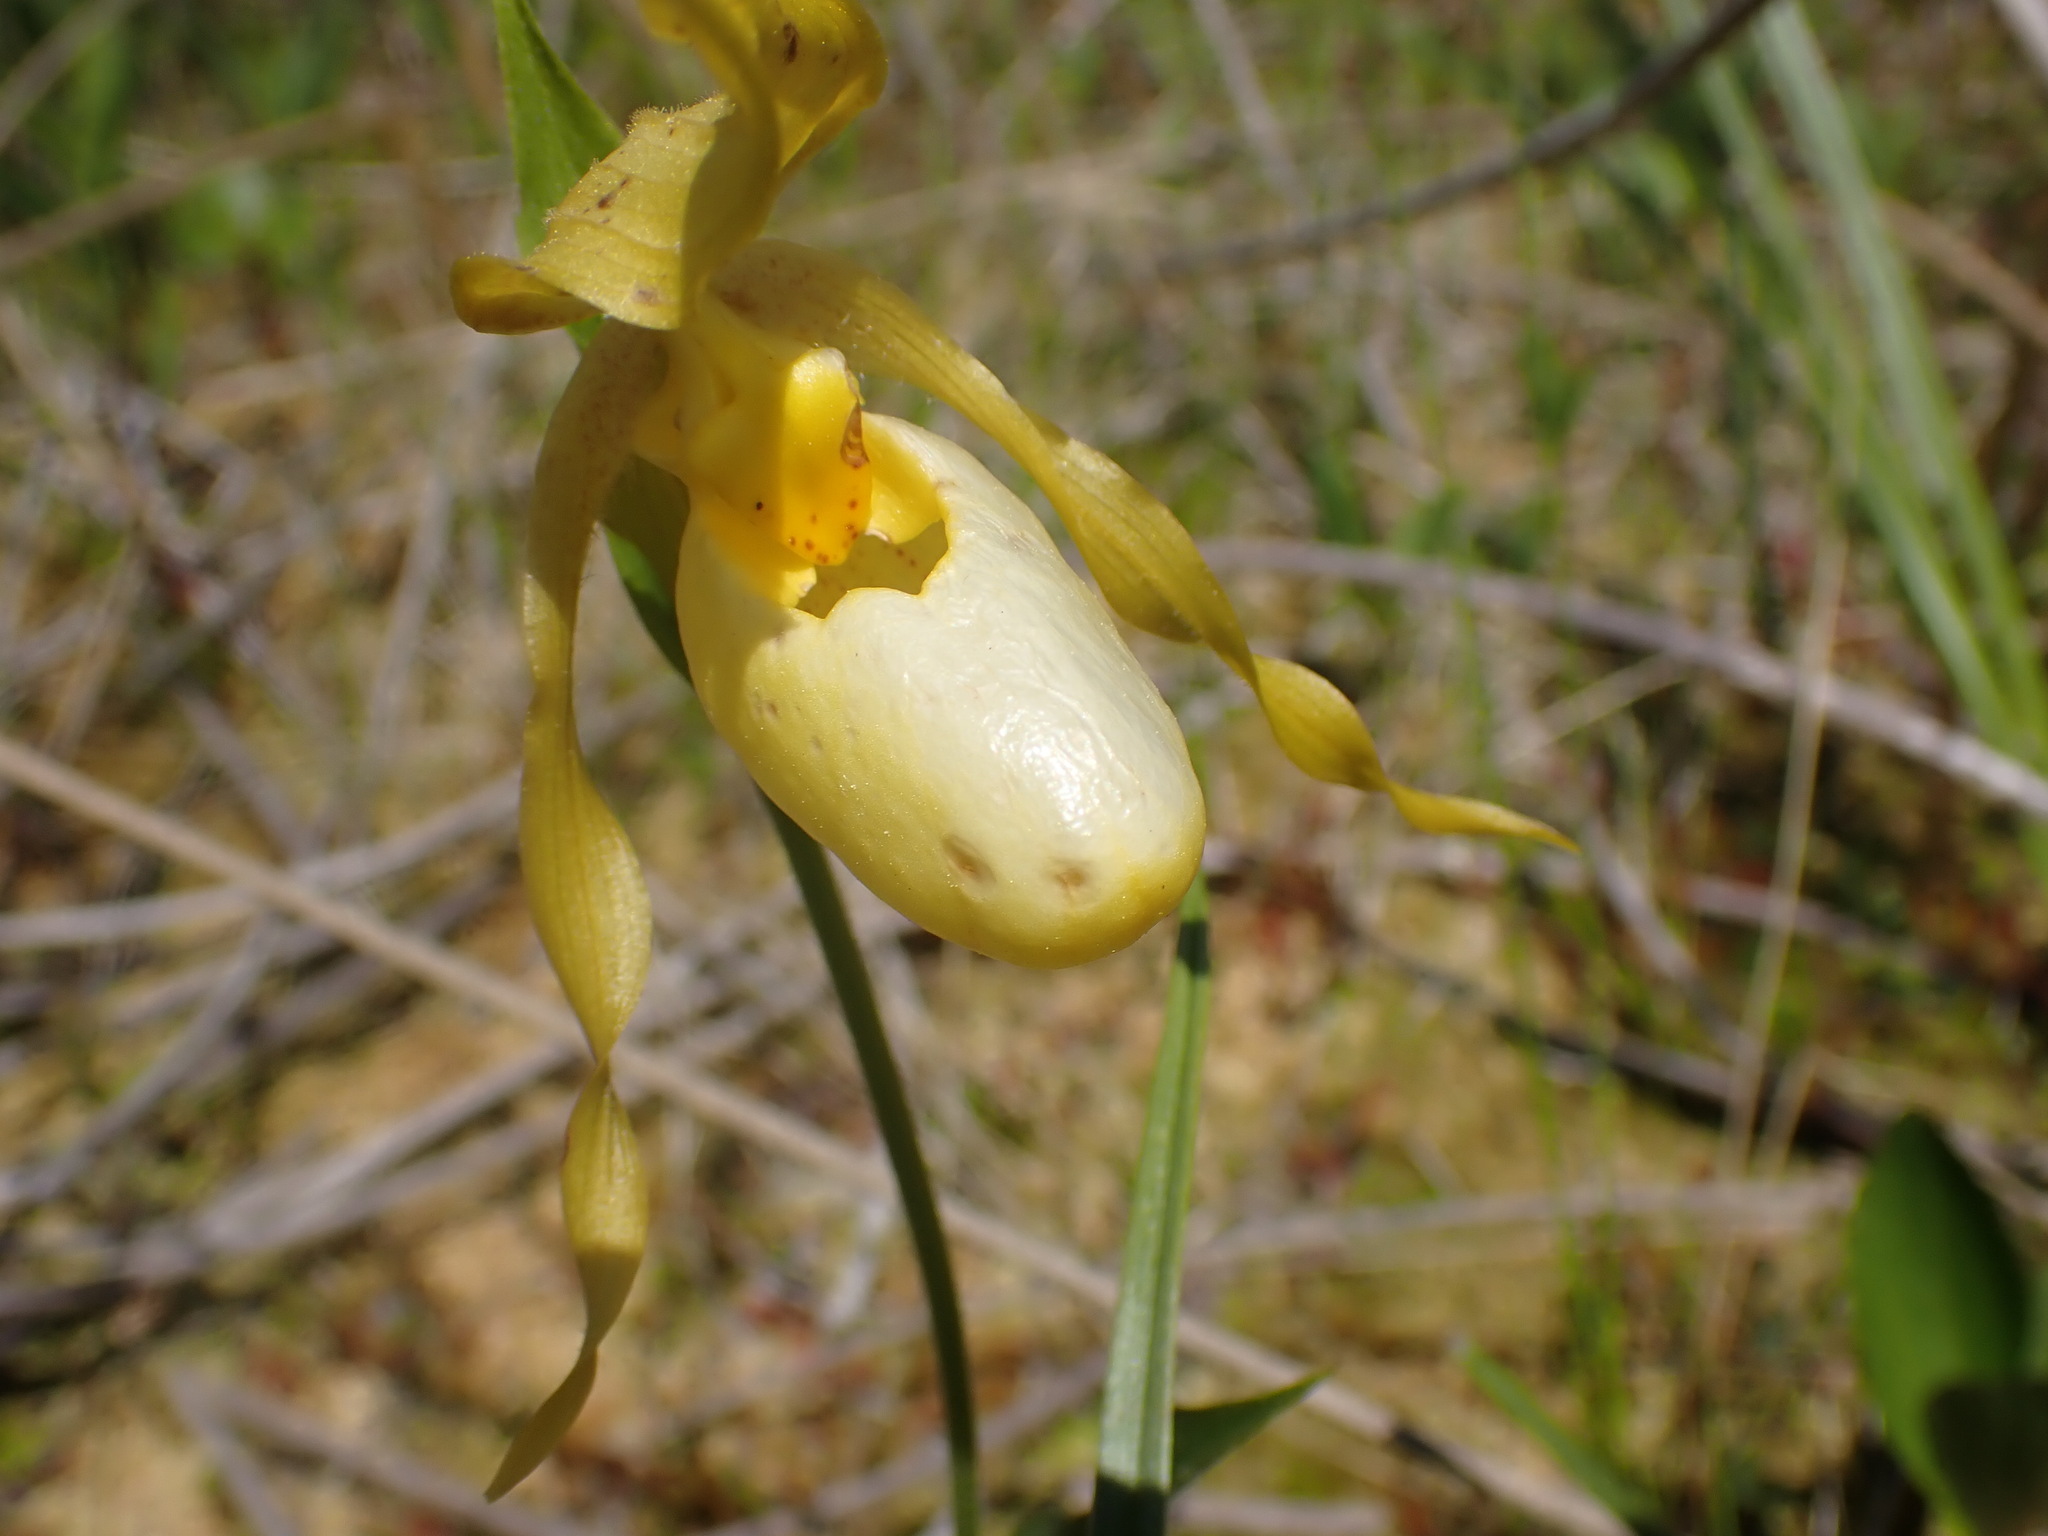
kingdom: Plantae
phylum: Tracheophyta
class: Liliopsida
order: Asparagales
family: Orchidaceae
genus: Cypripedium
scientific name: Cypripedium parviflorum
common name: American yellow lady's-slipper
